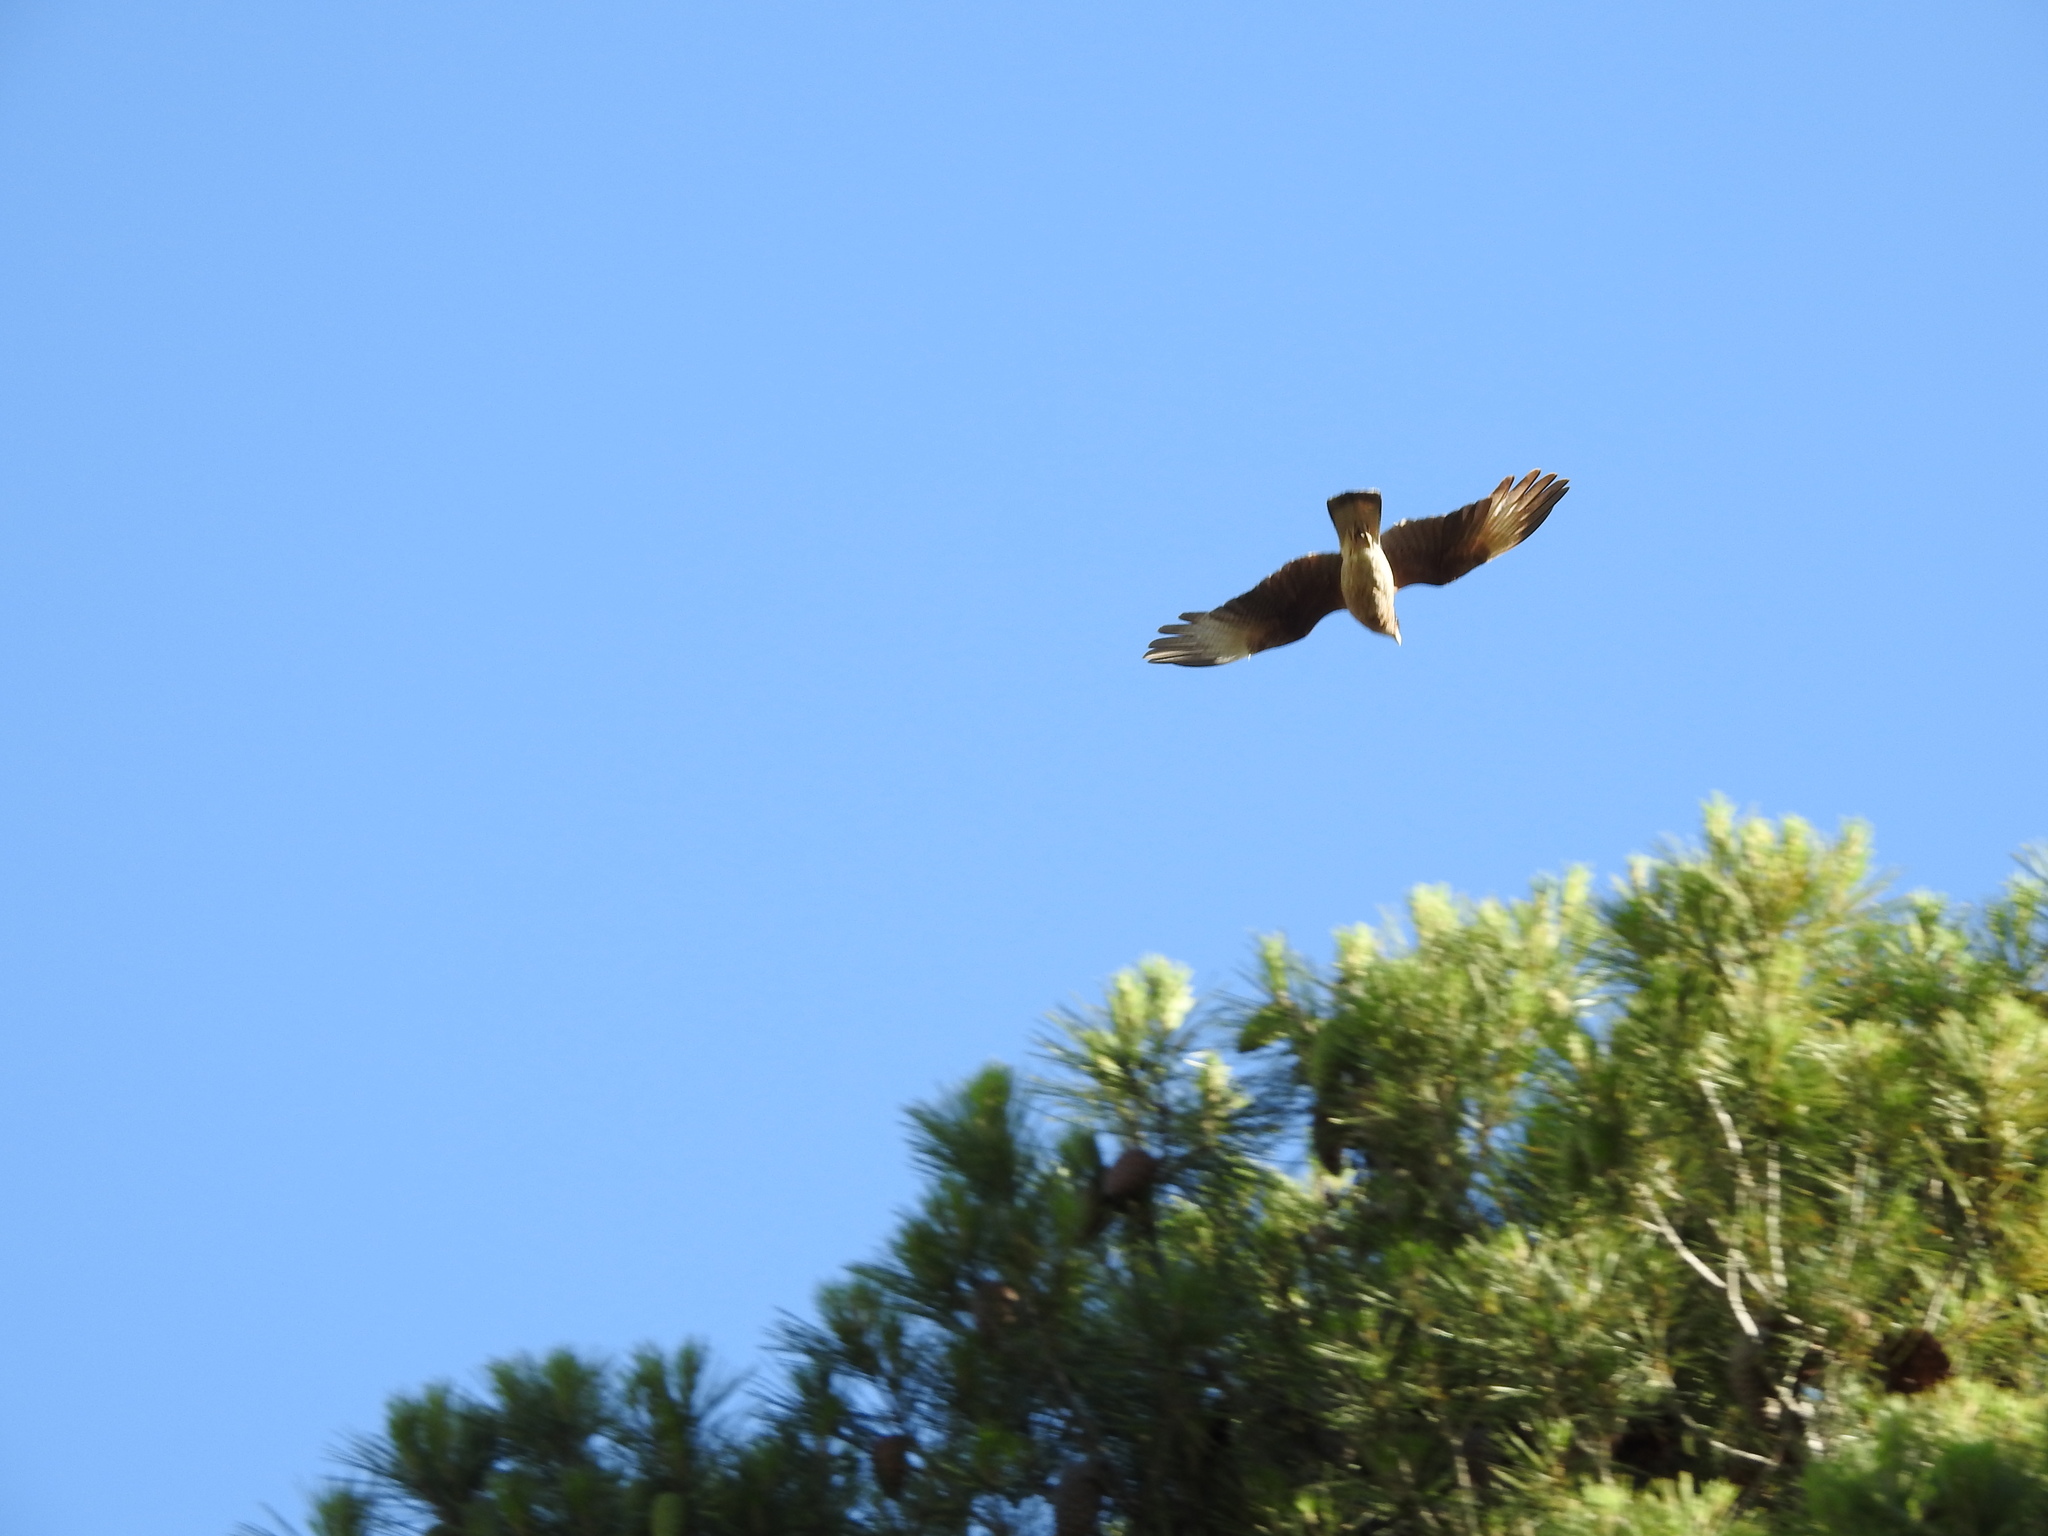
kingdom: Animalia
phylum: Chordata
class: Aves
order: Falconiformes
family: Falconidae
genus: Daptrius
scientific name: Daptrius
